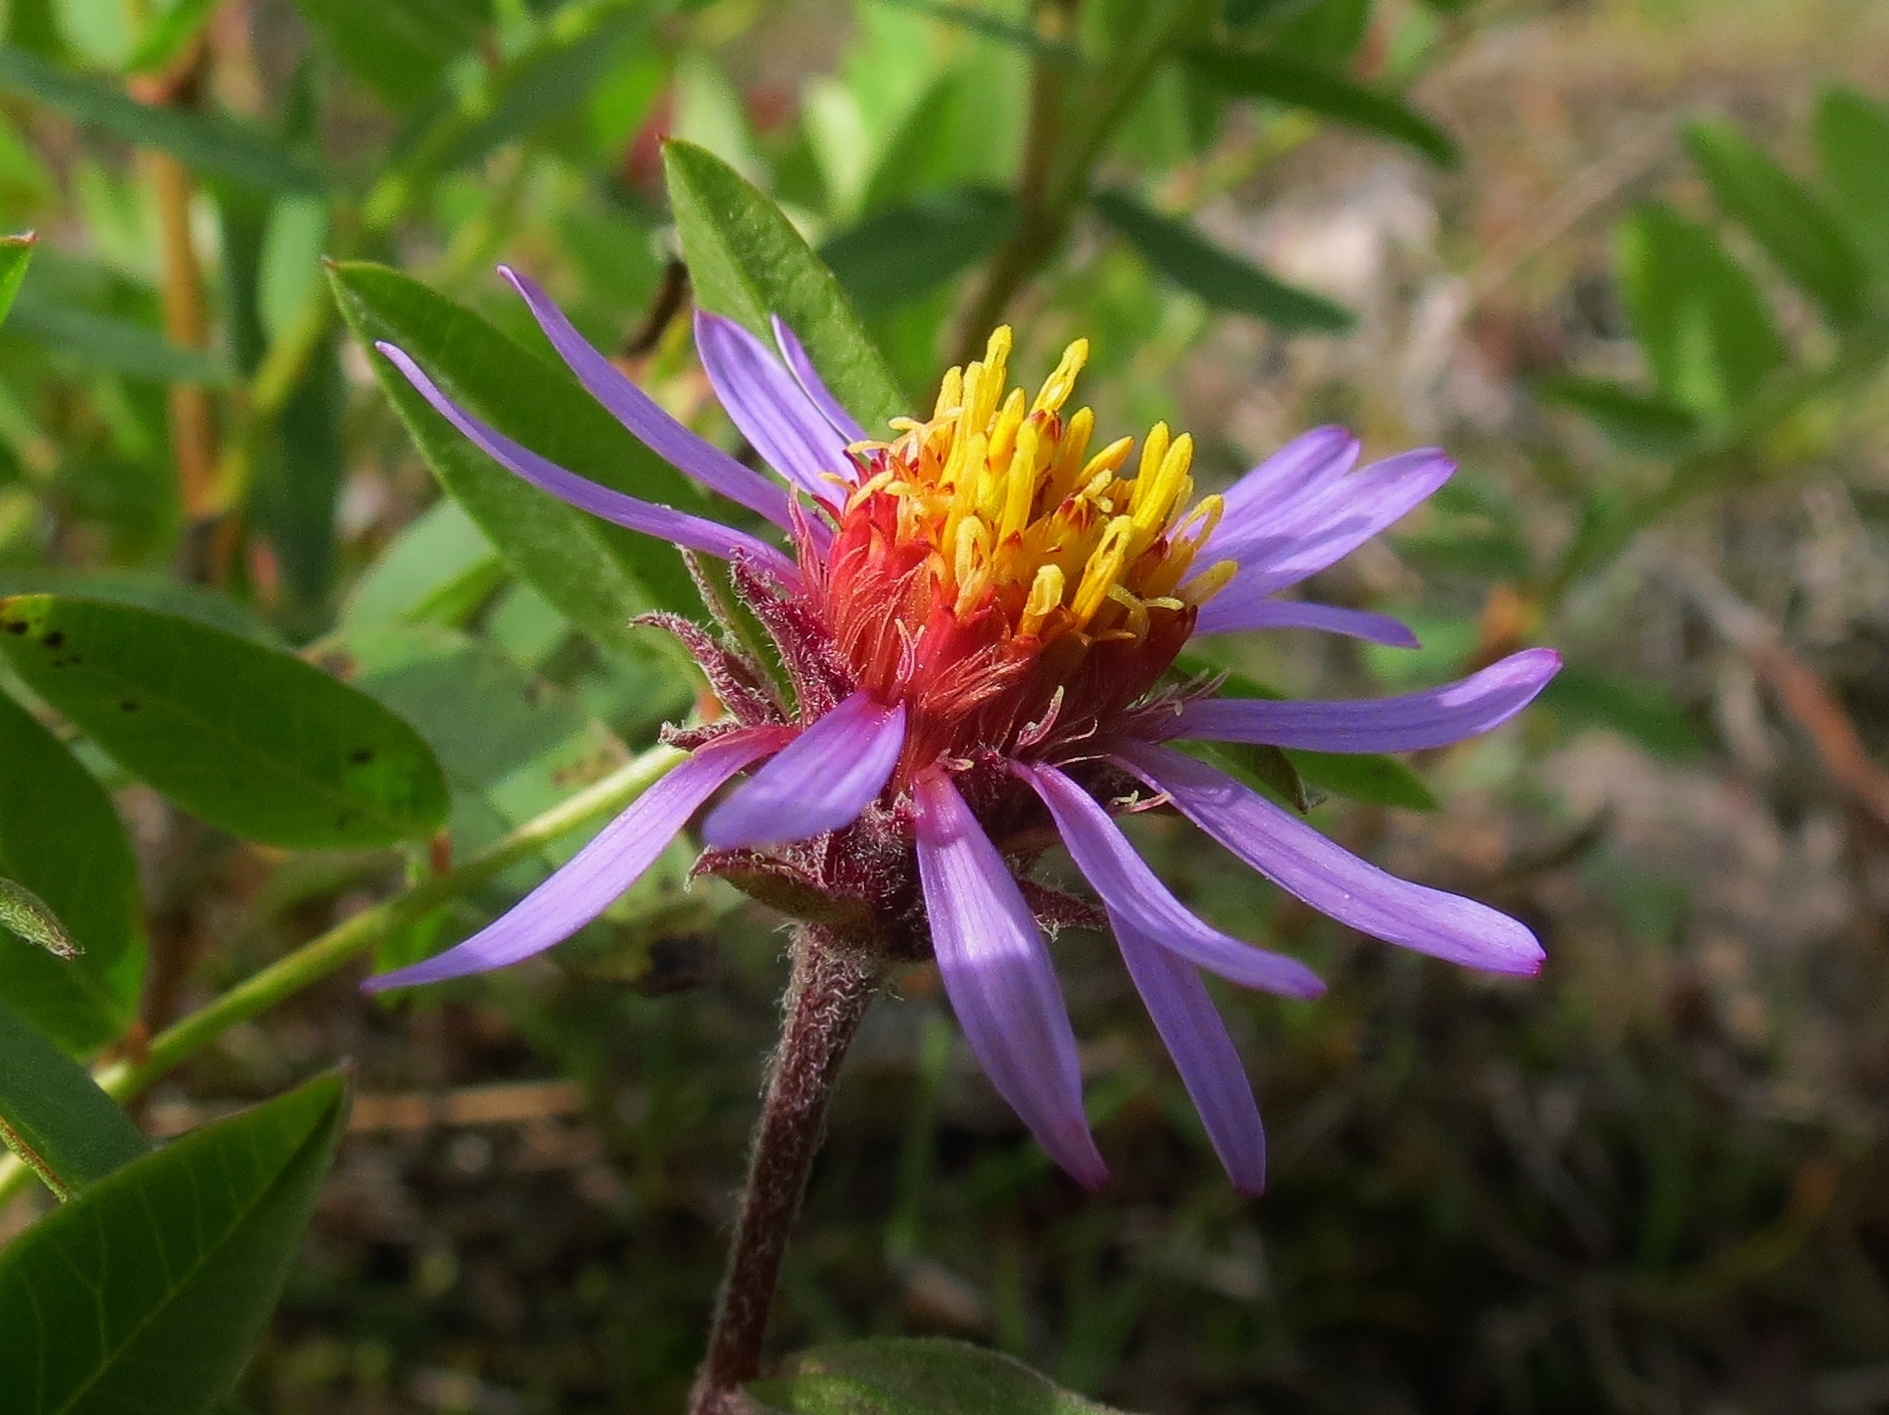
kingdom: Plantae
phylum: Tracheophyta
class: Magnoliopsida
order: Asterales
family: Asteraceae
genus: Eurybia
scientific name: Eurybia sibirica
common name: Arctic aster
